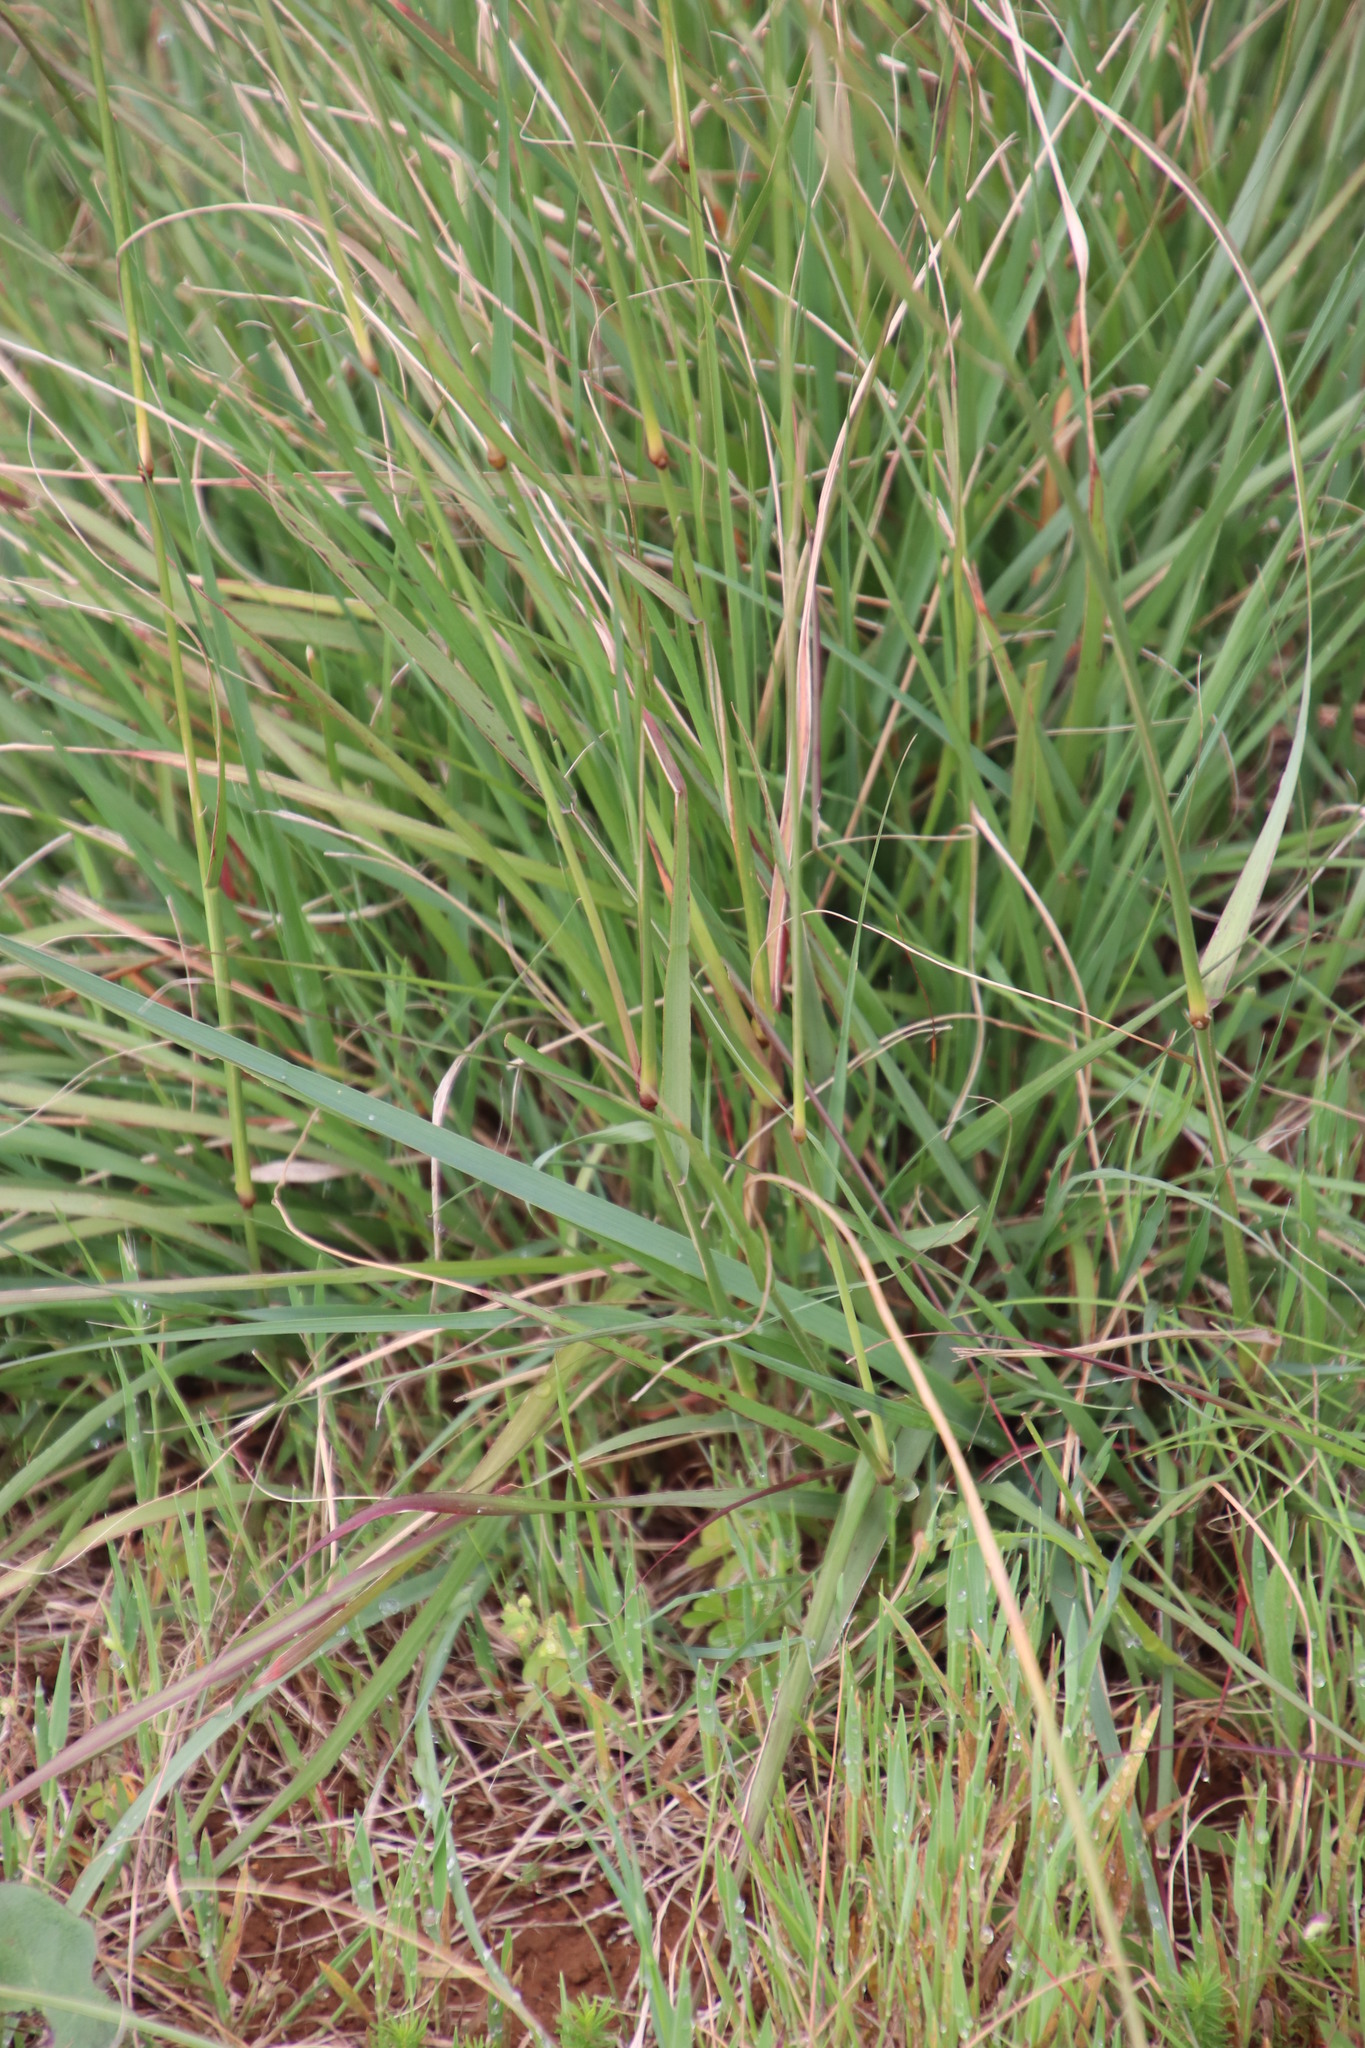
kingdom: Plantae
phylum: Tracheophyta
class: Liliopsida
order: Poales
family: Poaceae
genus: Eragrostis
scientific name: Eragrostis curvula
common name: African love-grass
